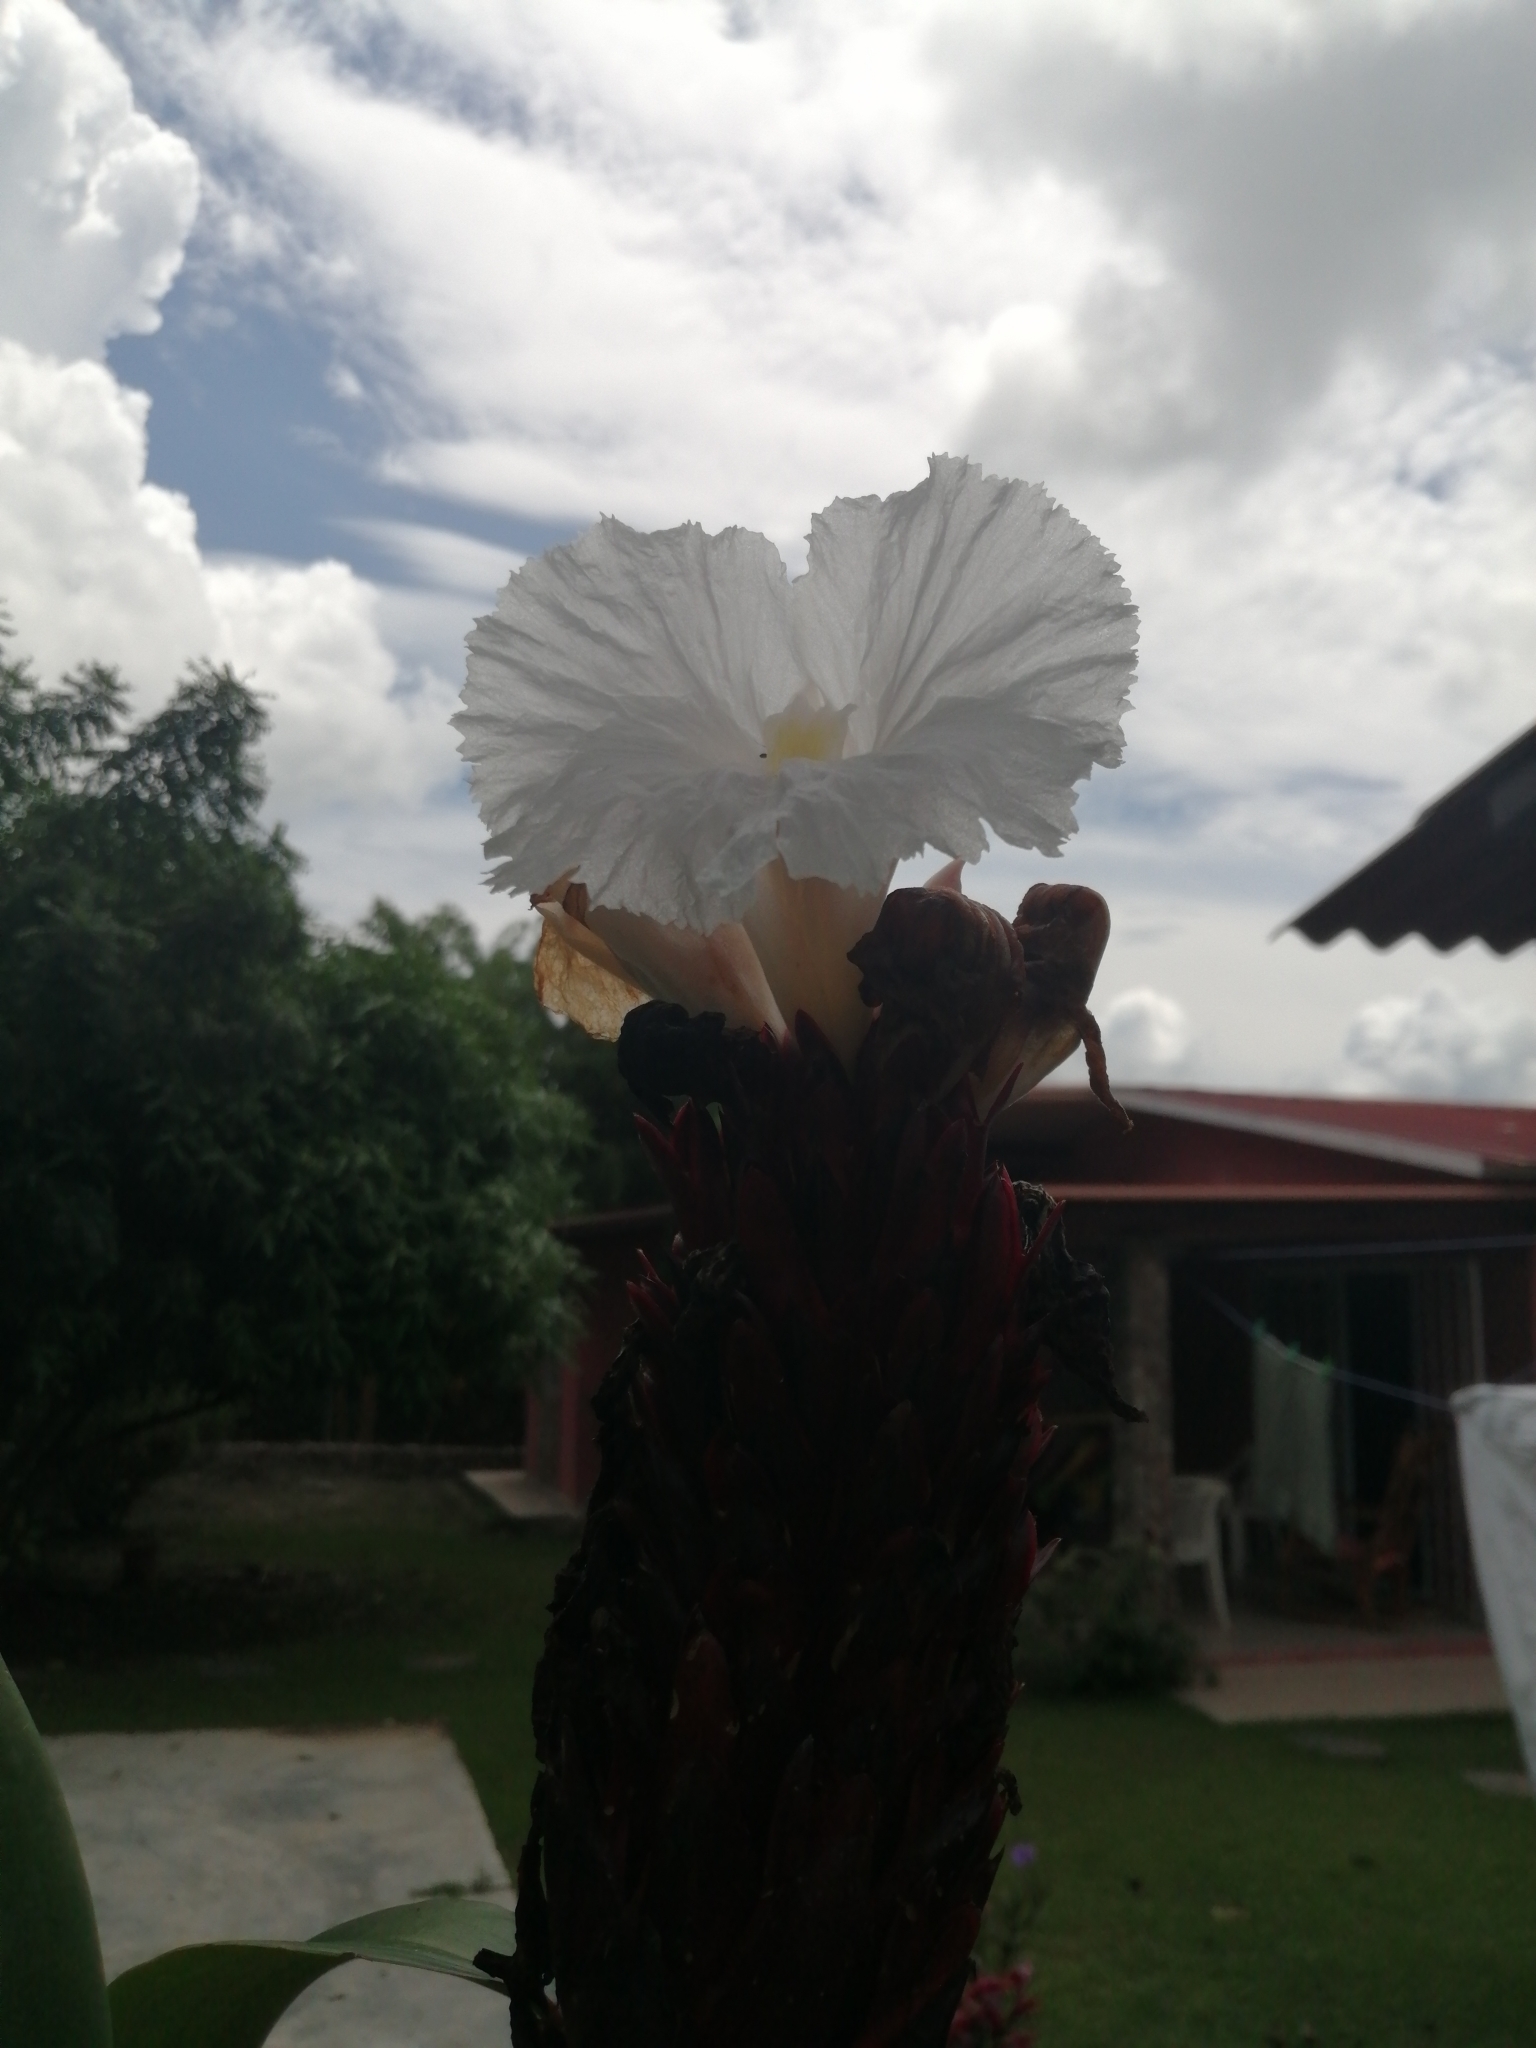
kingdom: Plantae
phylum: Tracheophyta
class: Liliopsida
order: Zingiberales
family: Costaceae
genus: Hellenia
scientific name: Hellenia speciosa
